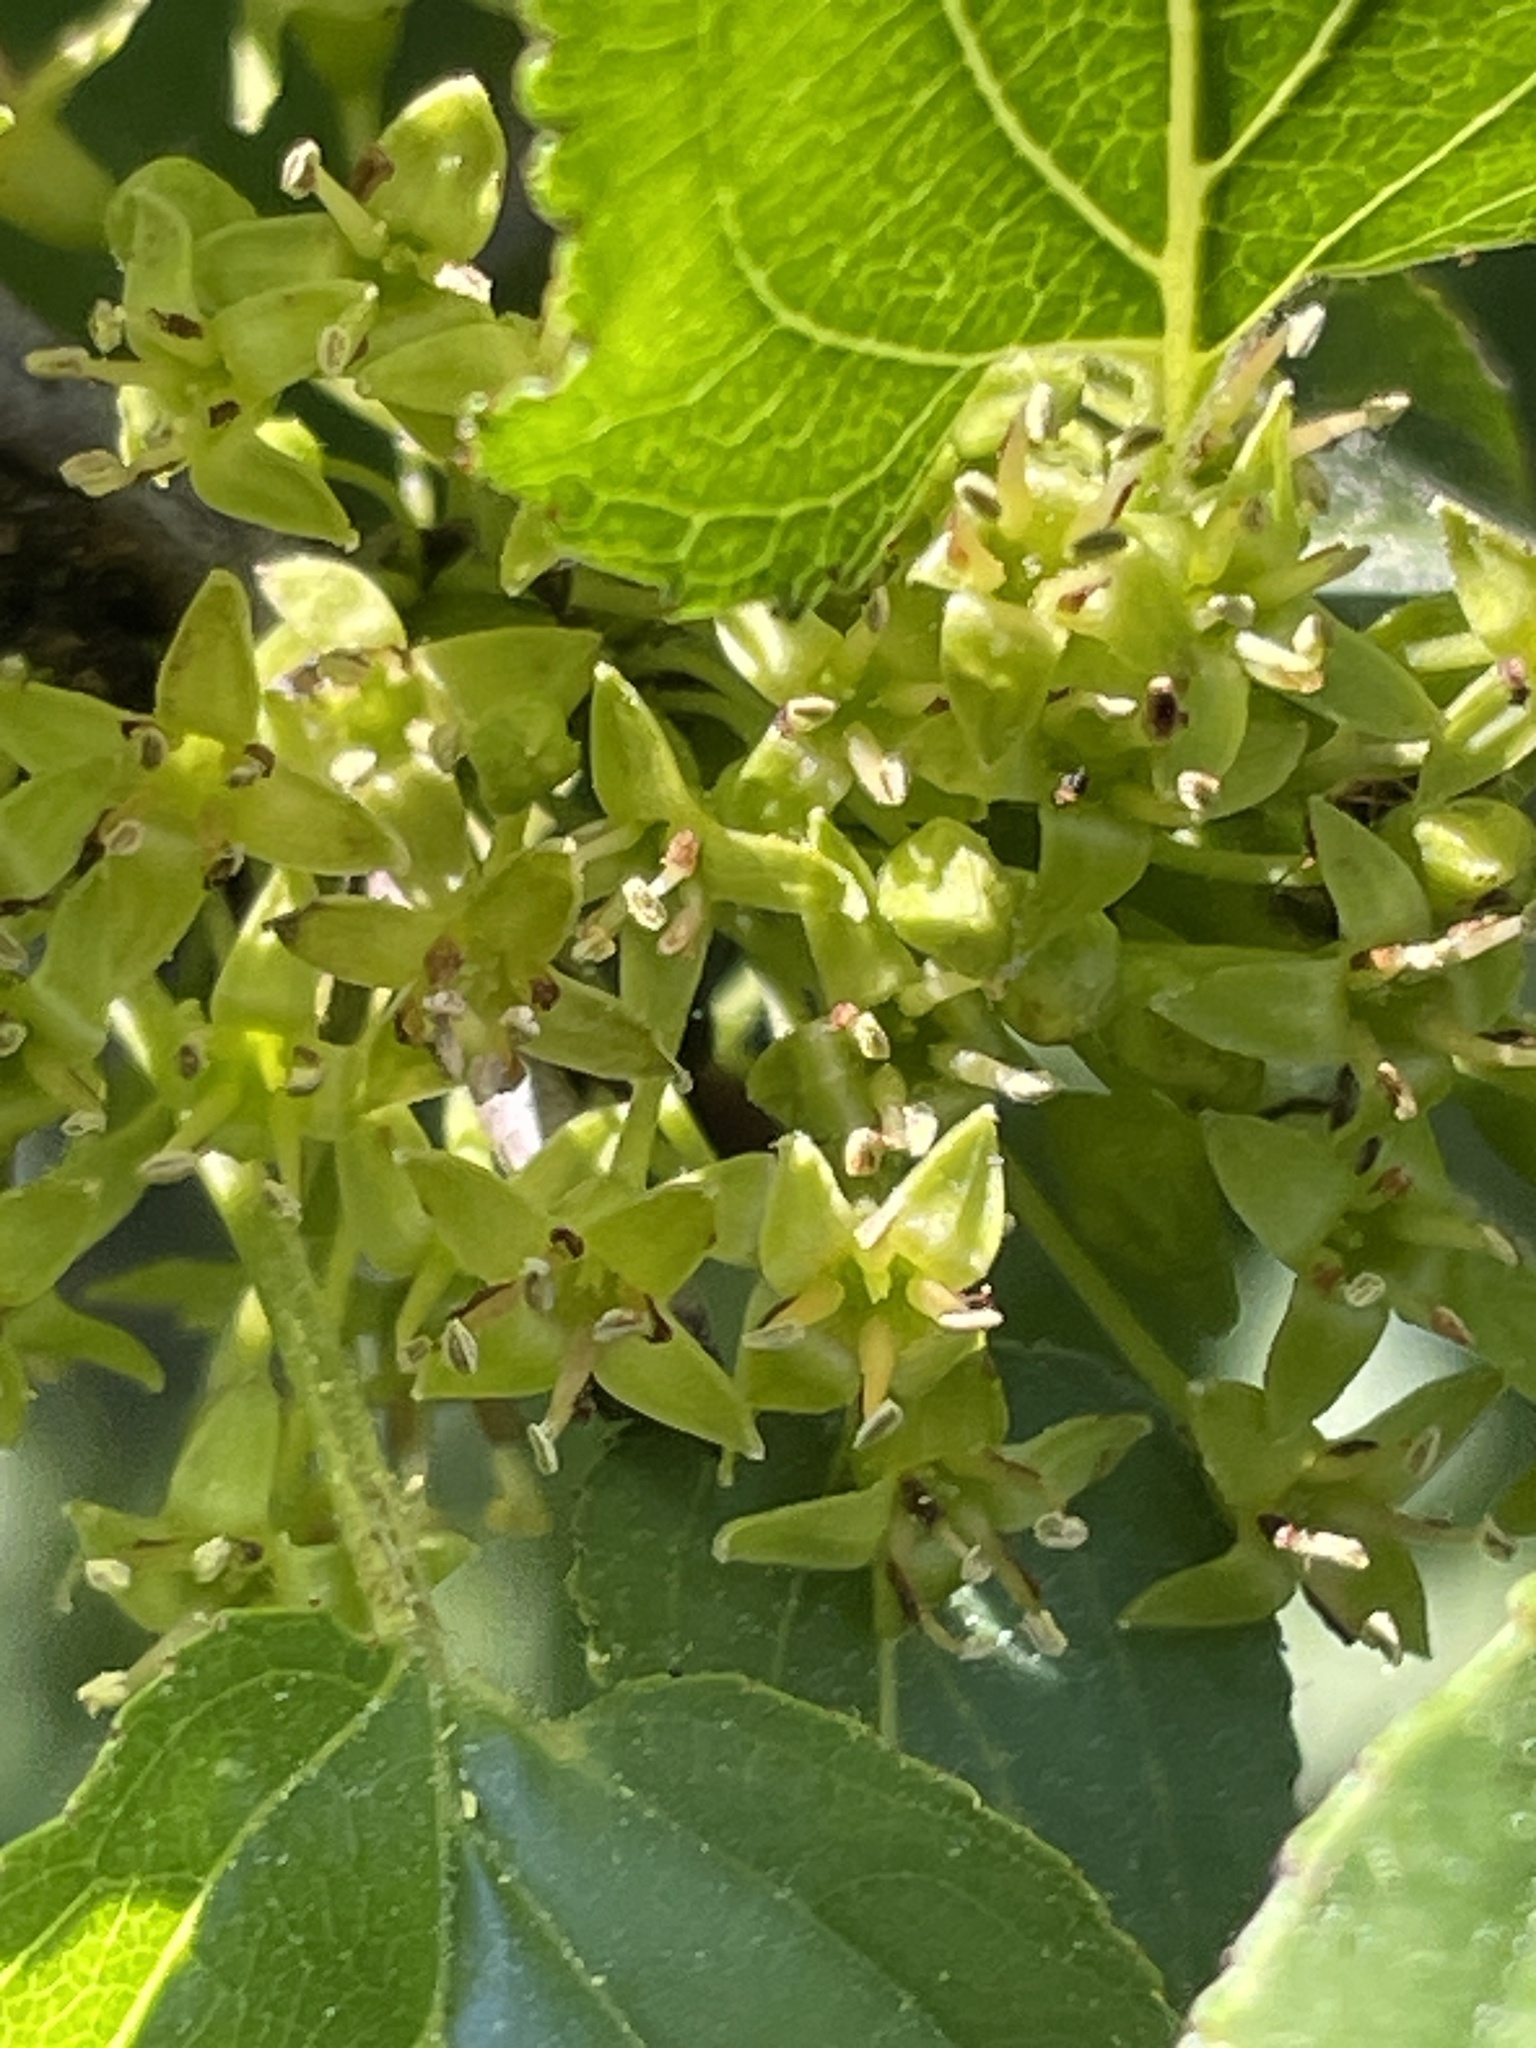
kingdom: Plantae
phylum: Tracheophyta
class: Magnoliopsida
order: Rosales
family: Rhamnaceae
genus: Rhamnus
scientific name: Rhamnus cathartica
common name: Common buckthorn
